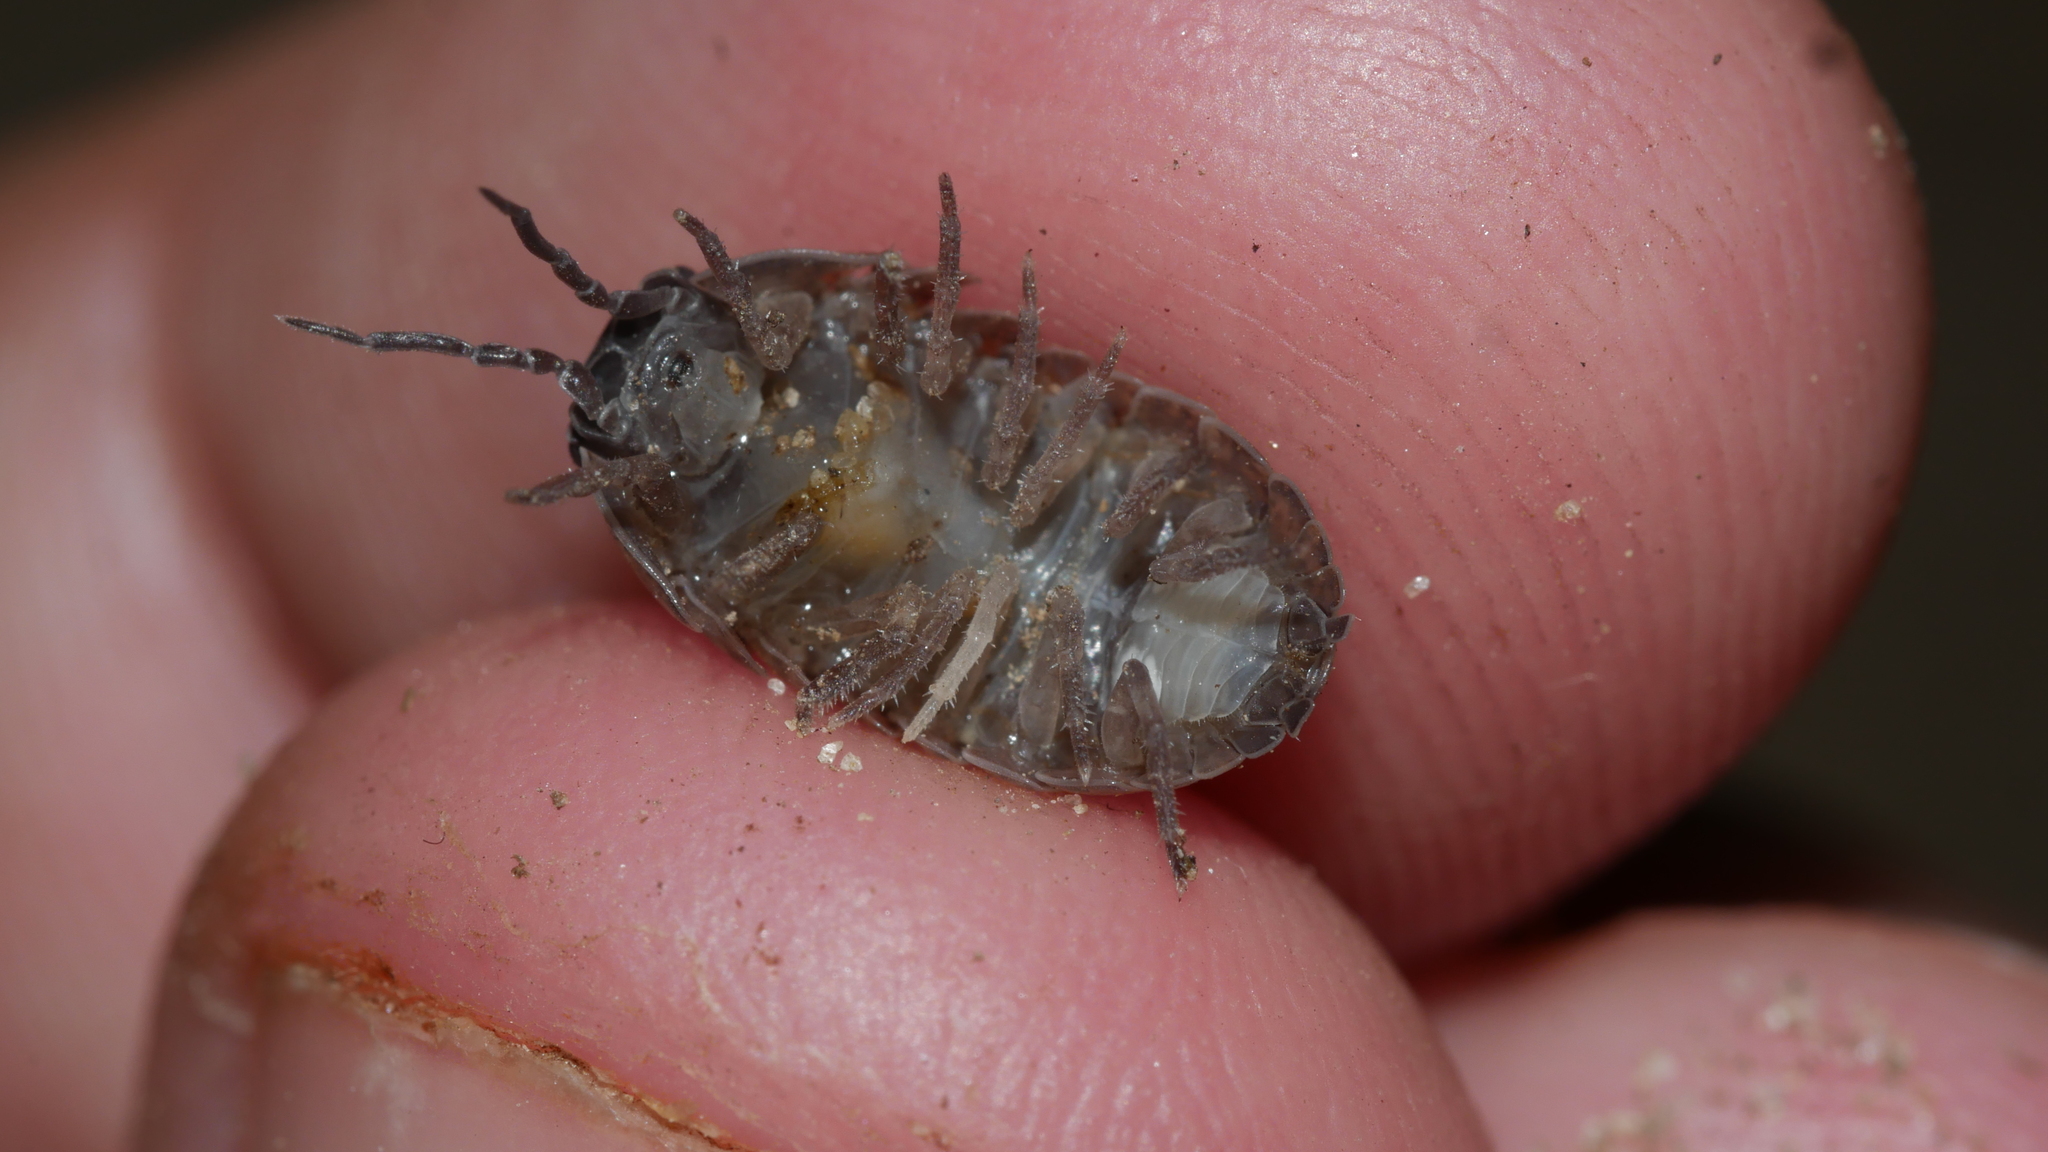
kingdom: Animalia
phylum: Arthropoda
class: Malacostraca
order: Isopoda
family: Armadillidiidae
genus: Armadillidium
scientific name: Armadillidium vulgare
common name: Common pill woodlouse
